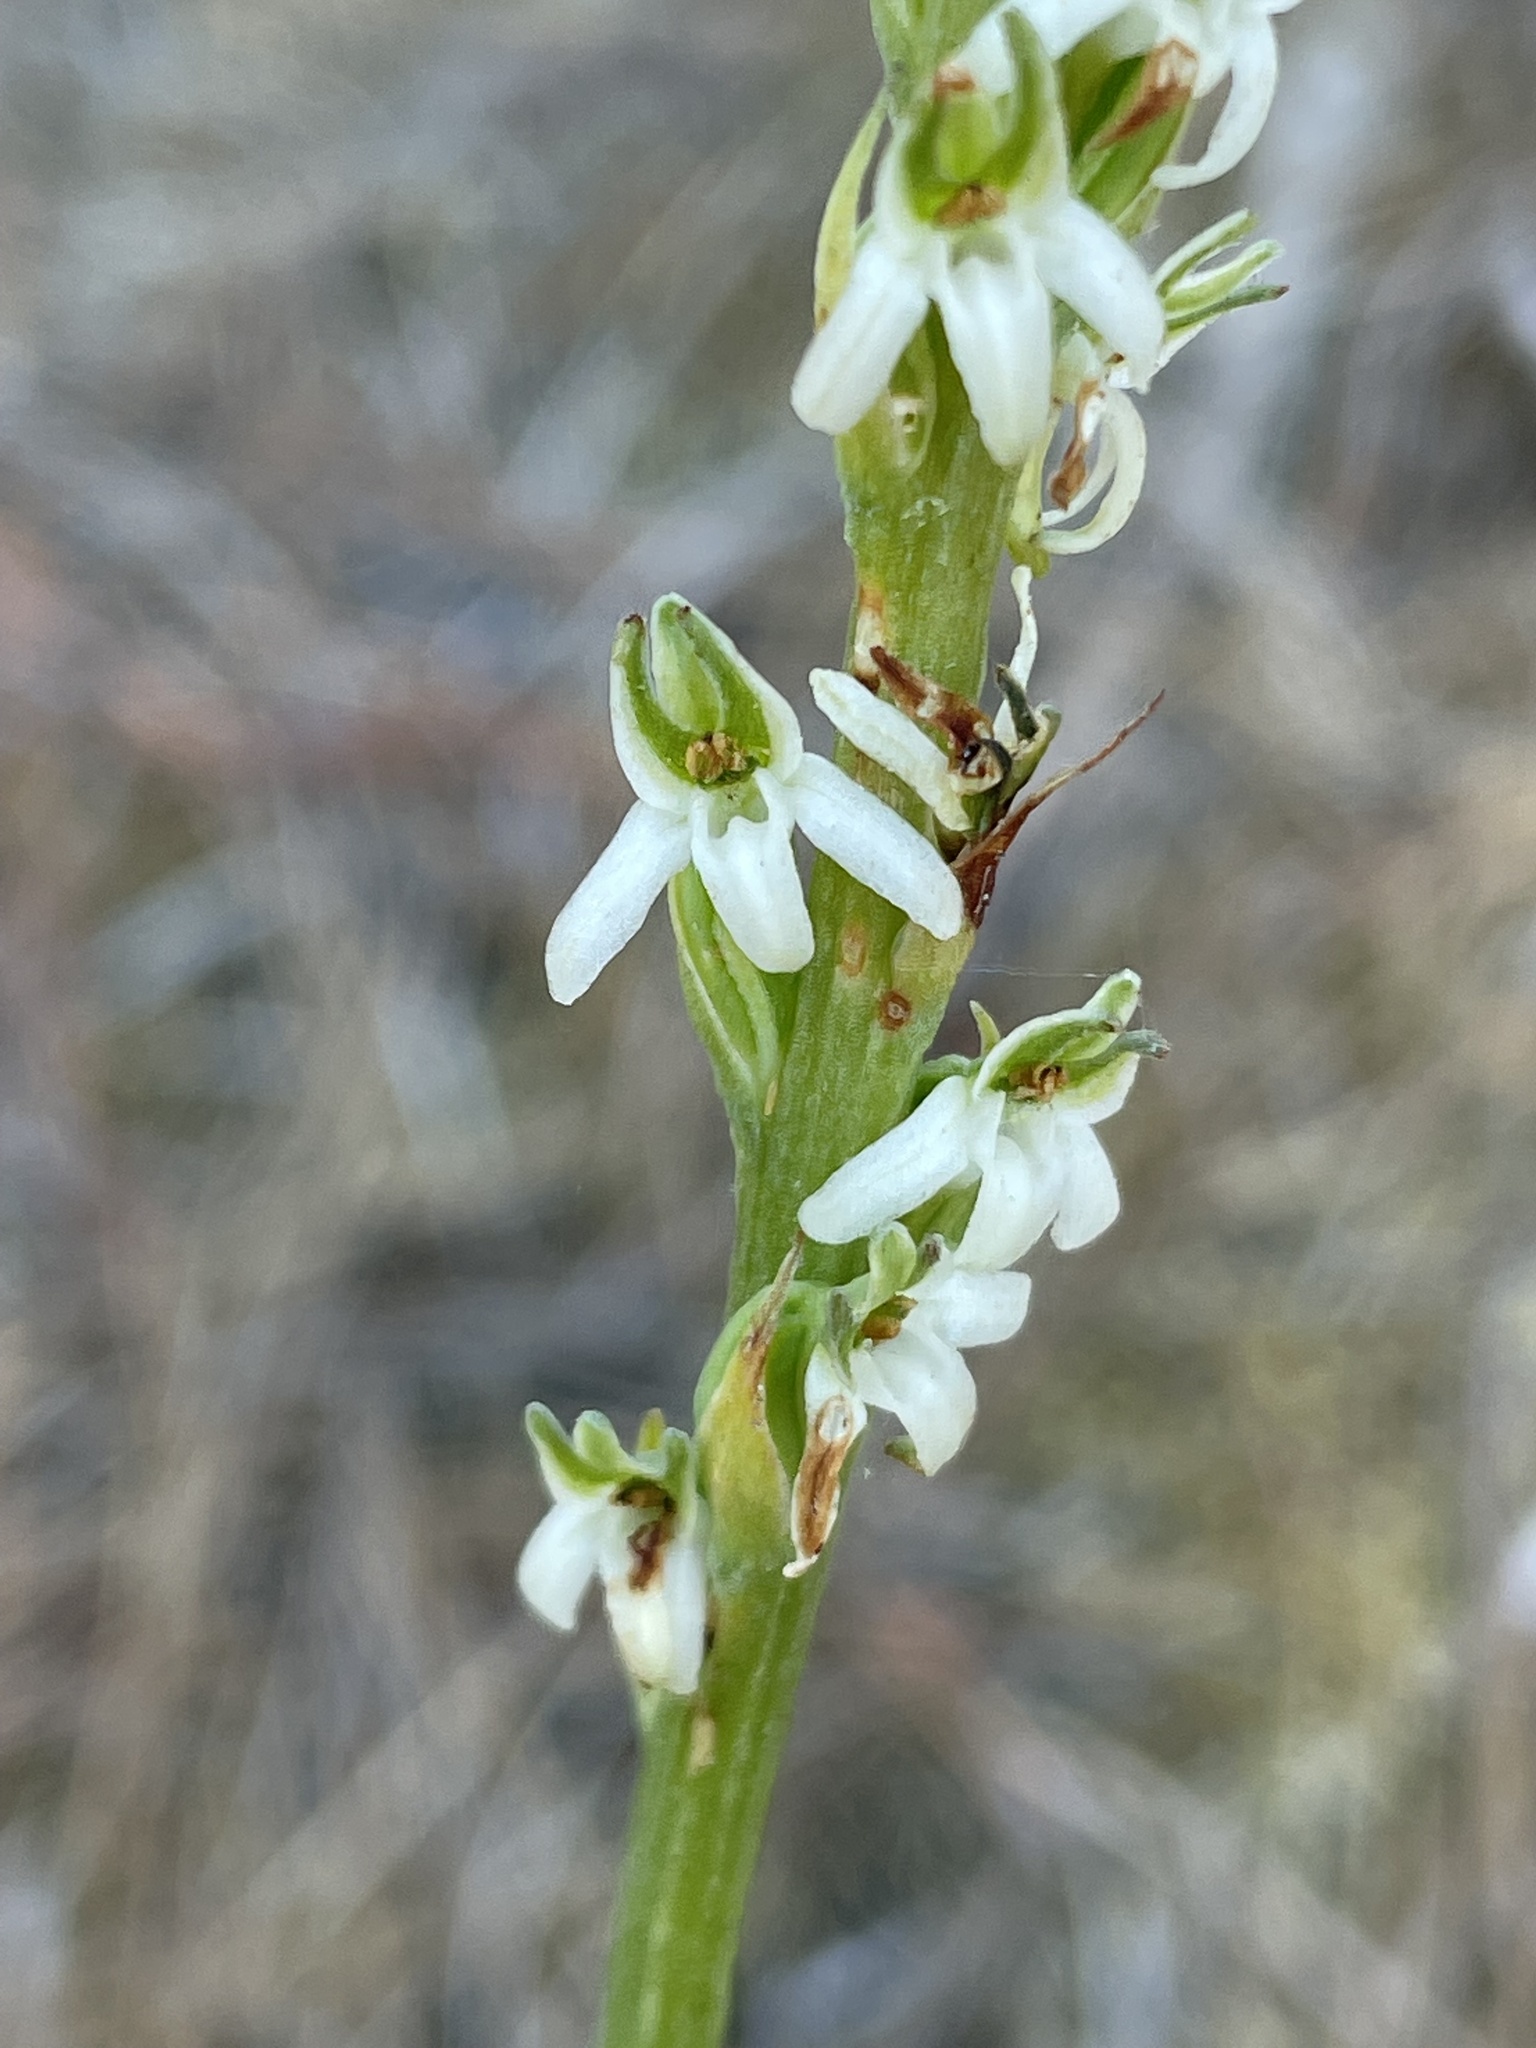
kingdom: Plantae
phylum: Tracheophyta
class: Liliopsida
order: Asparagales
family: Orchidaceae
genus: Platanthera
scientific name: Platanthera yadonii
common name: Yadon’s piperia
